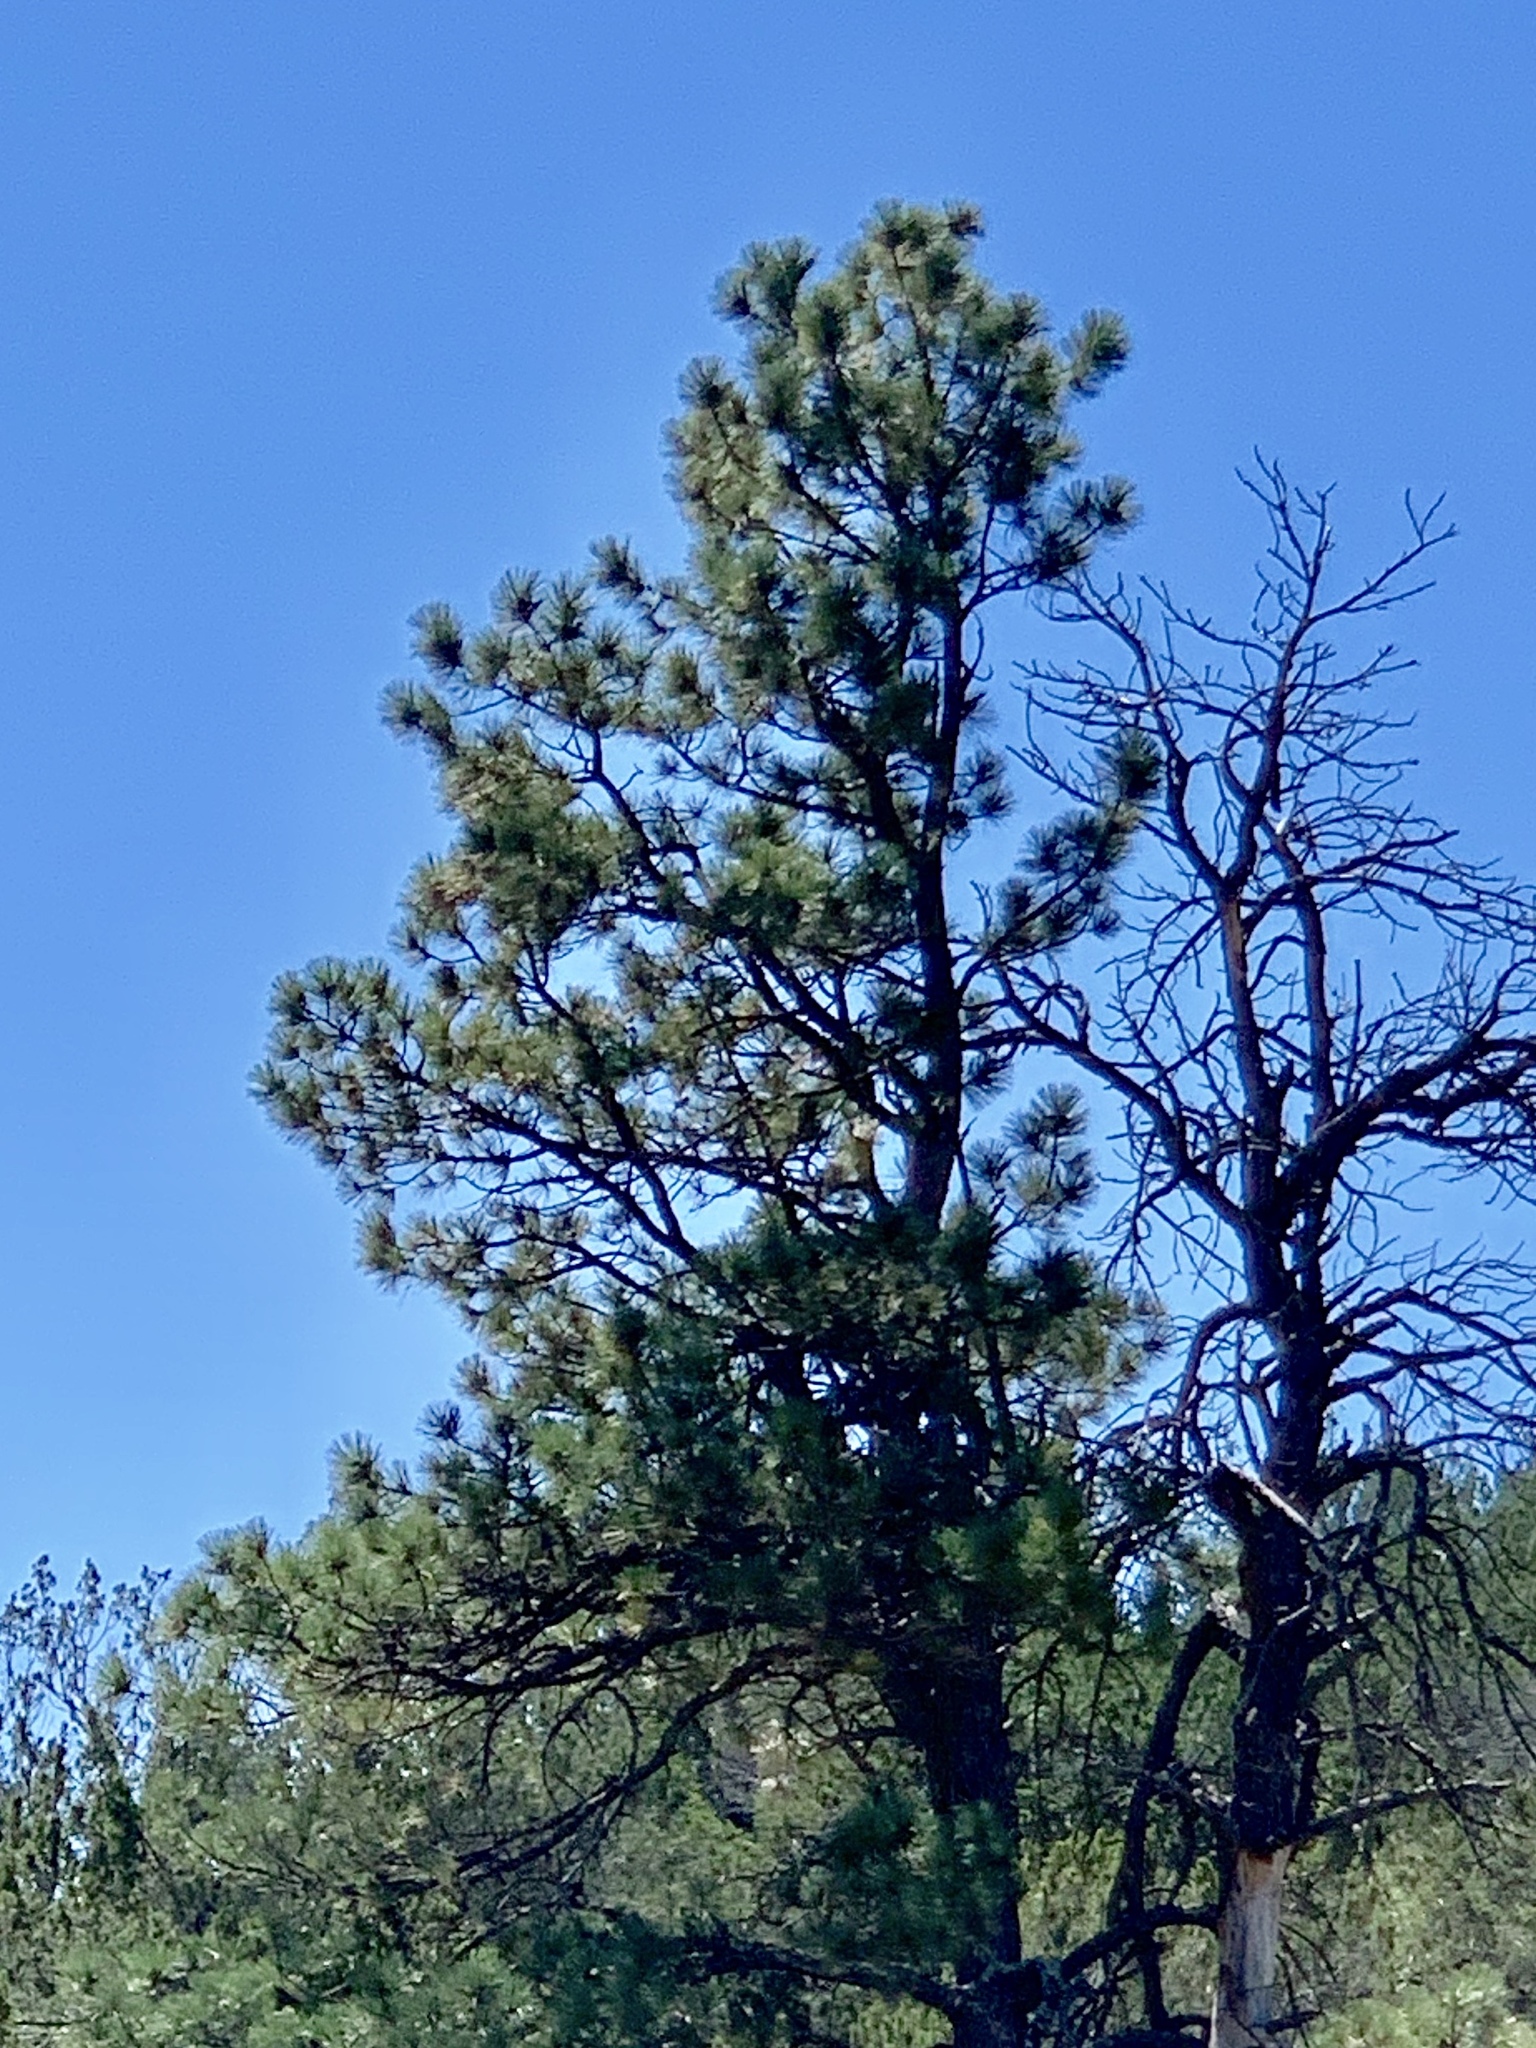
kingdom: Plantae
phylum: Tracheophyta
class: Pinopsida
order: Pinales
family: Pinaceae
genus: Pinus
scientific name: Pinus ponderosa
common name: Western yellow-pine
